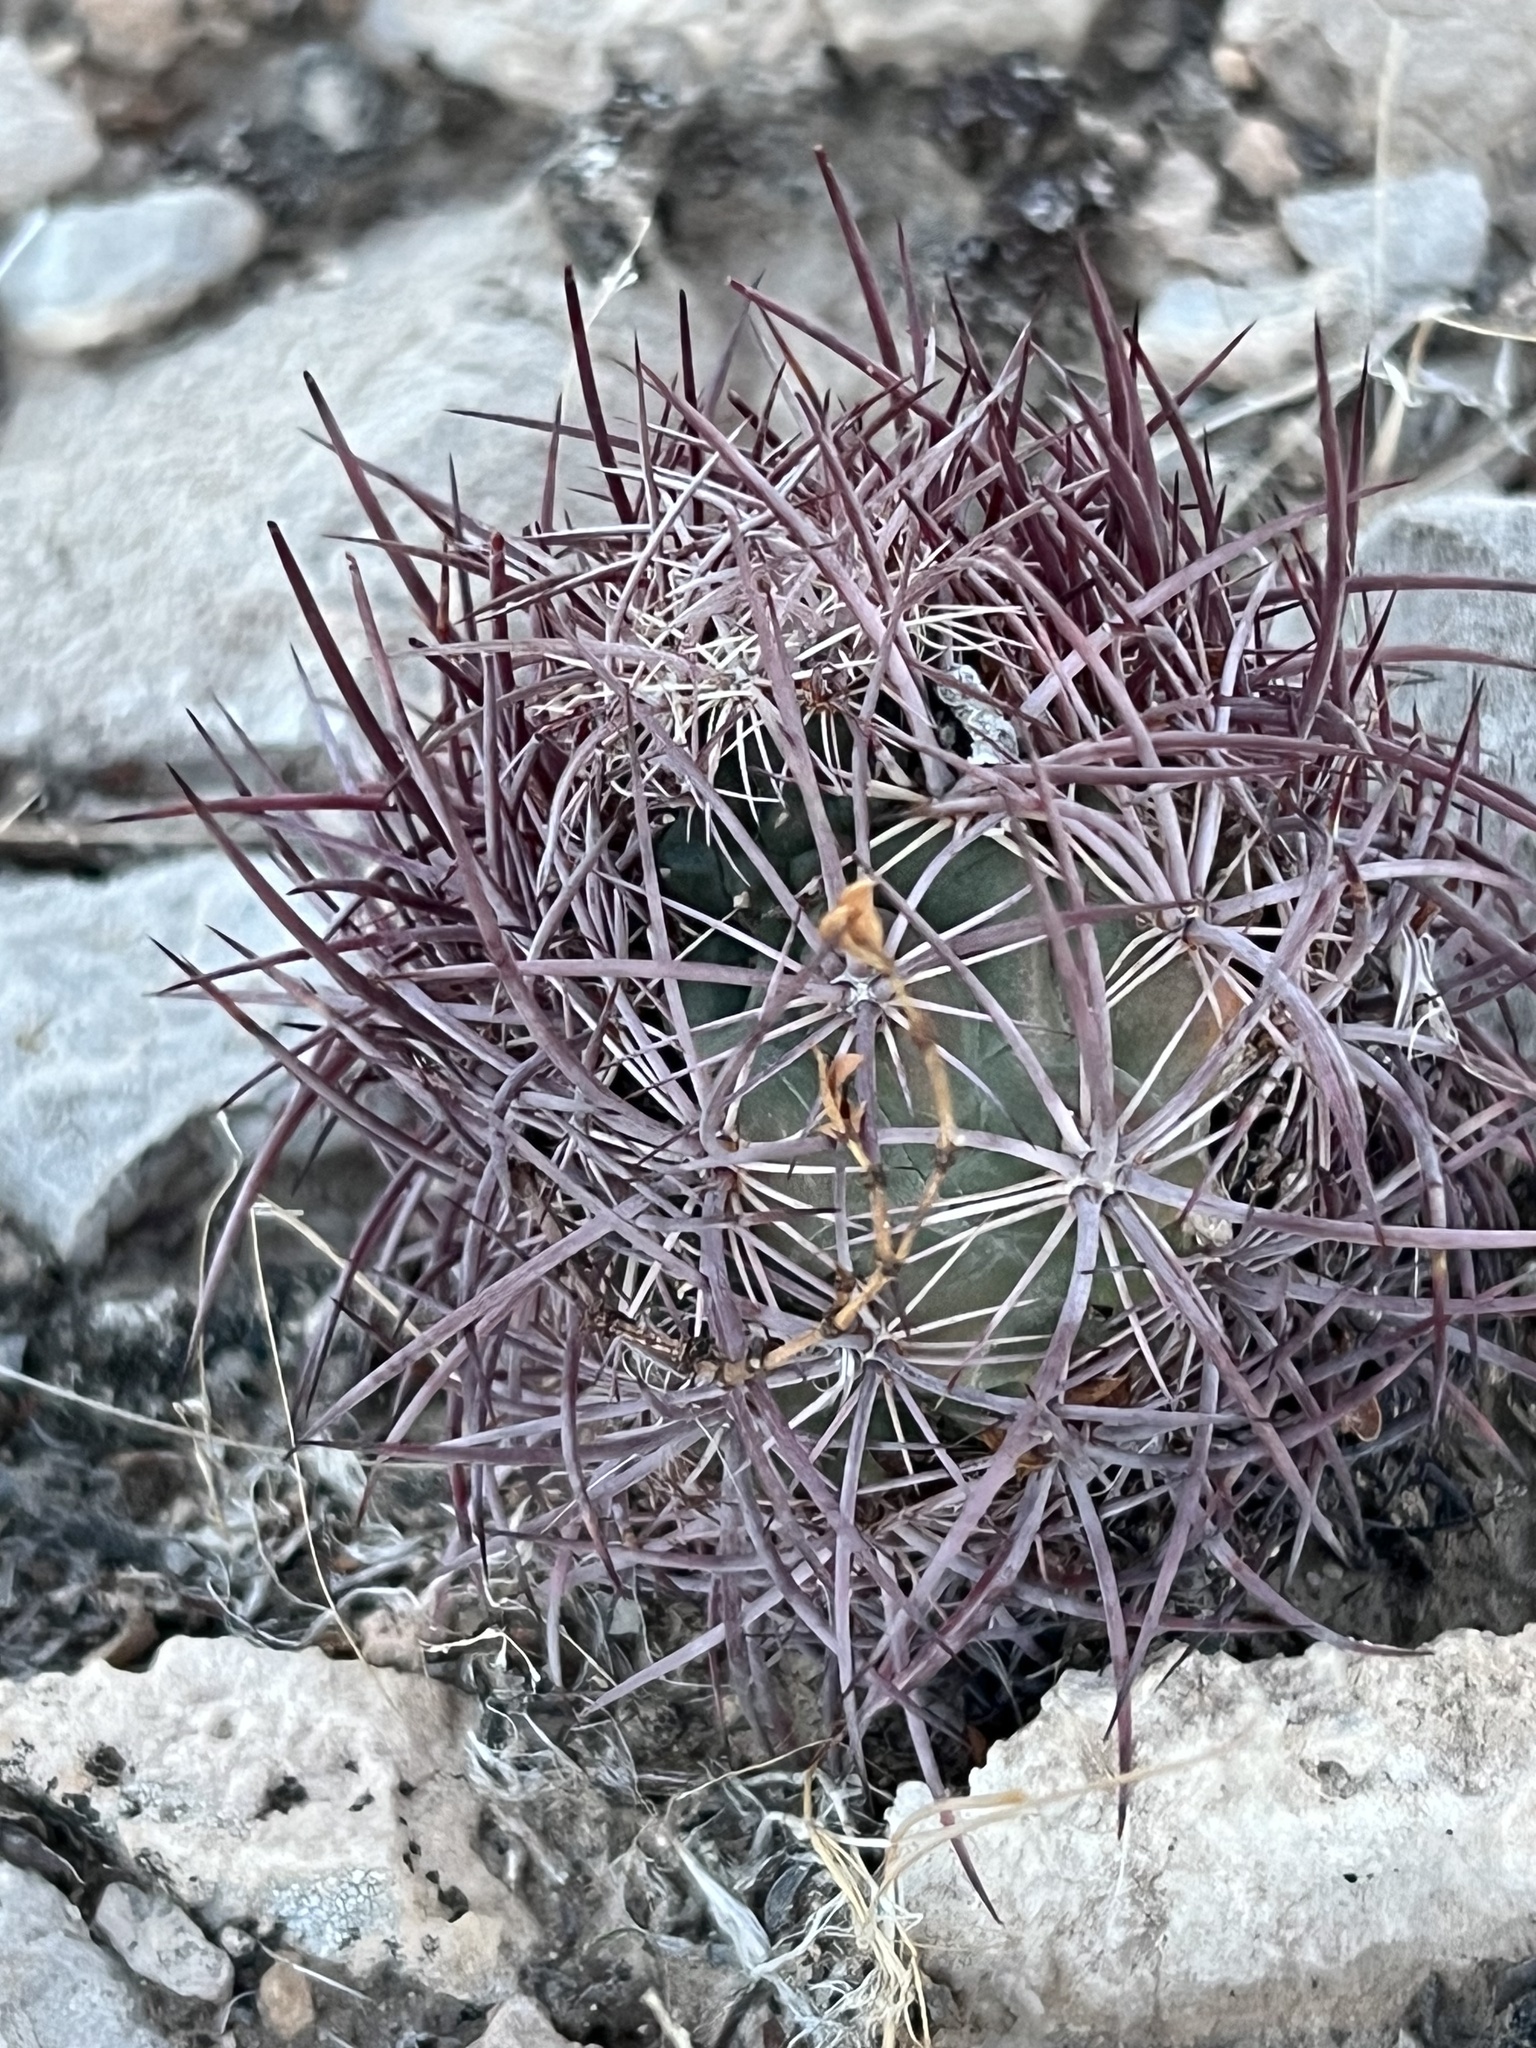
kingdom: Plantae
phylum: Tracheophyta
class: Magnoliopsida
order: Caryophyllales
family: Cactaceae
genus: Sclerocactus
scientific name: Sclerocactus johnsonii
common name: Eight-spine fishhook cactus
